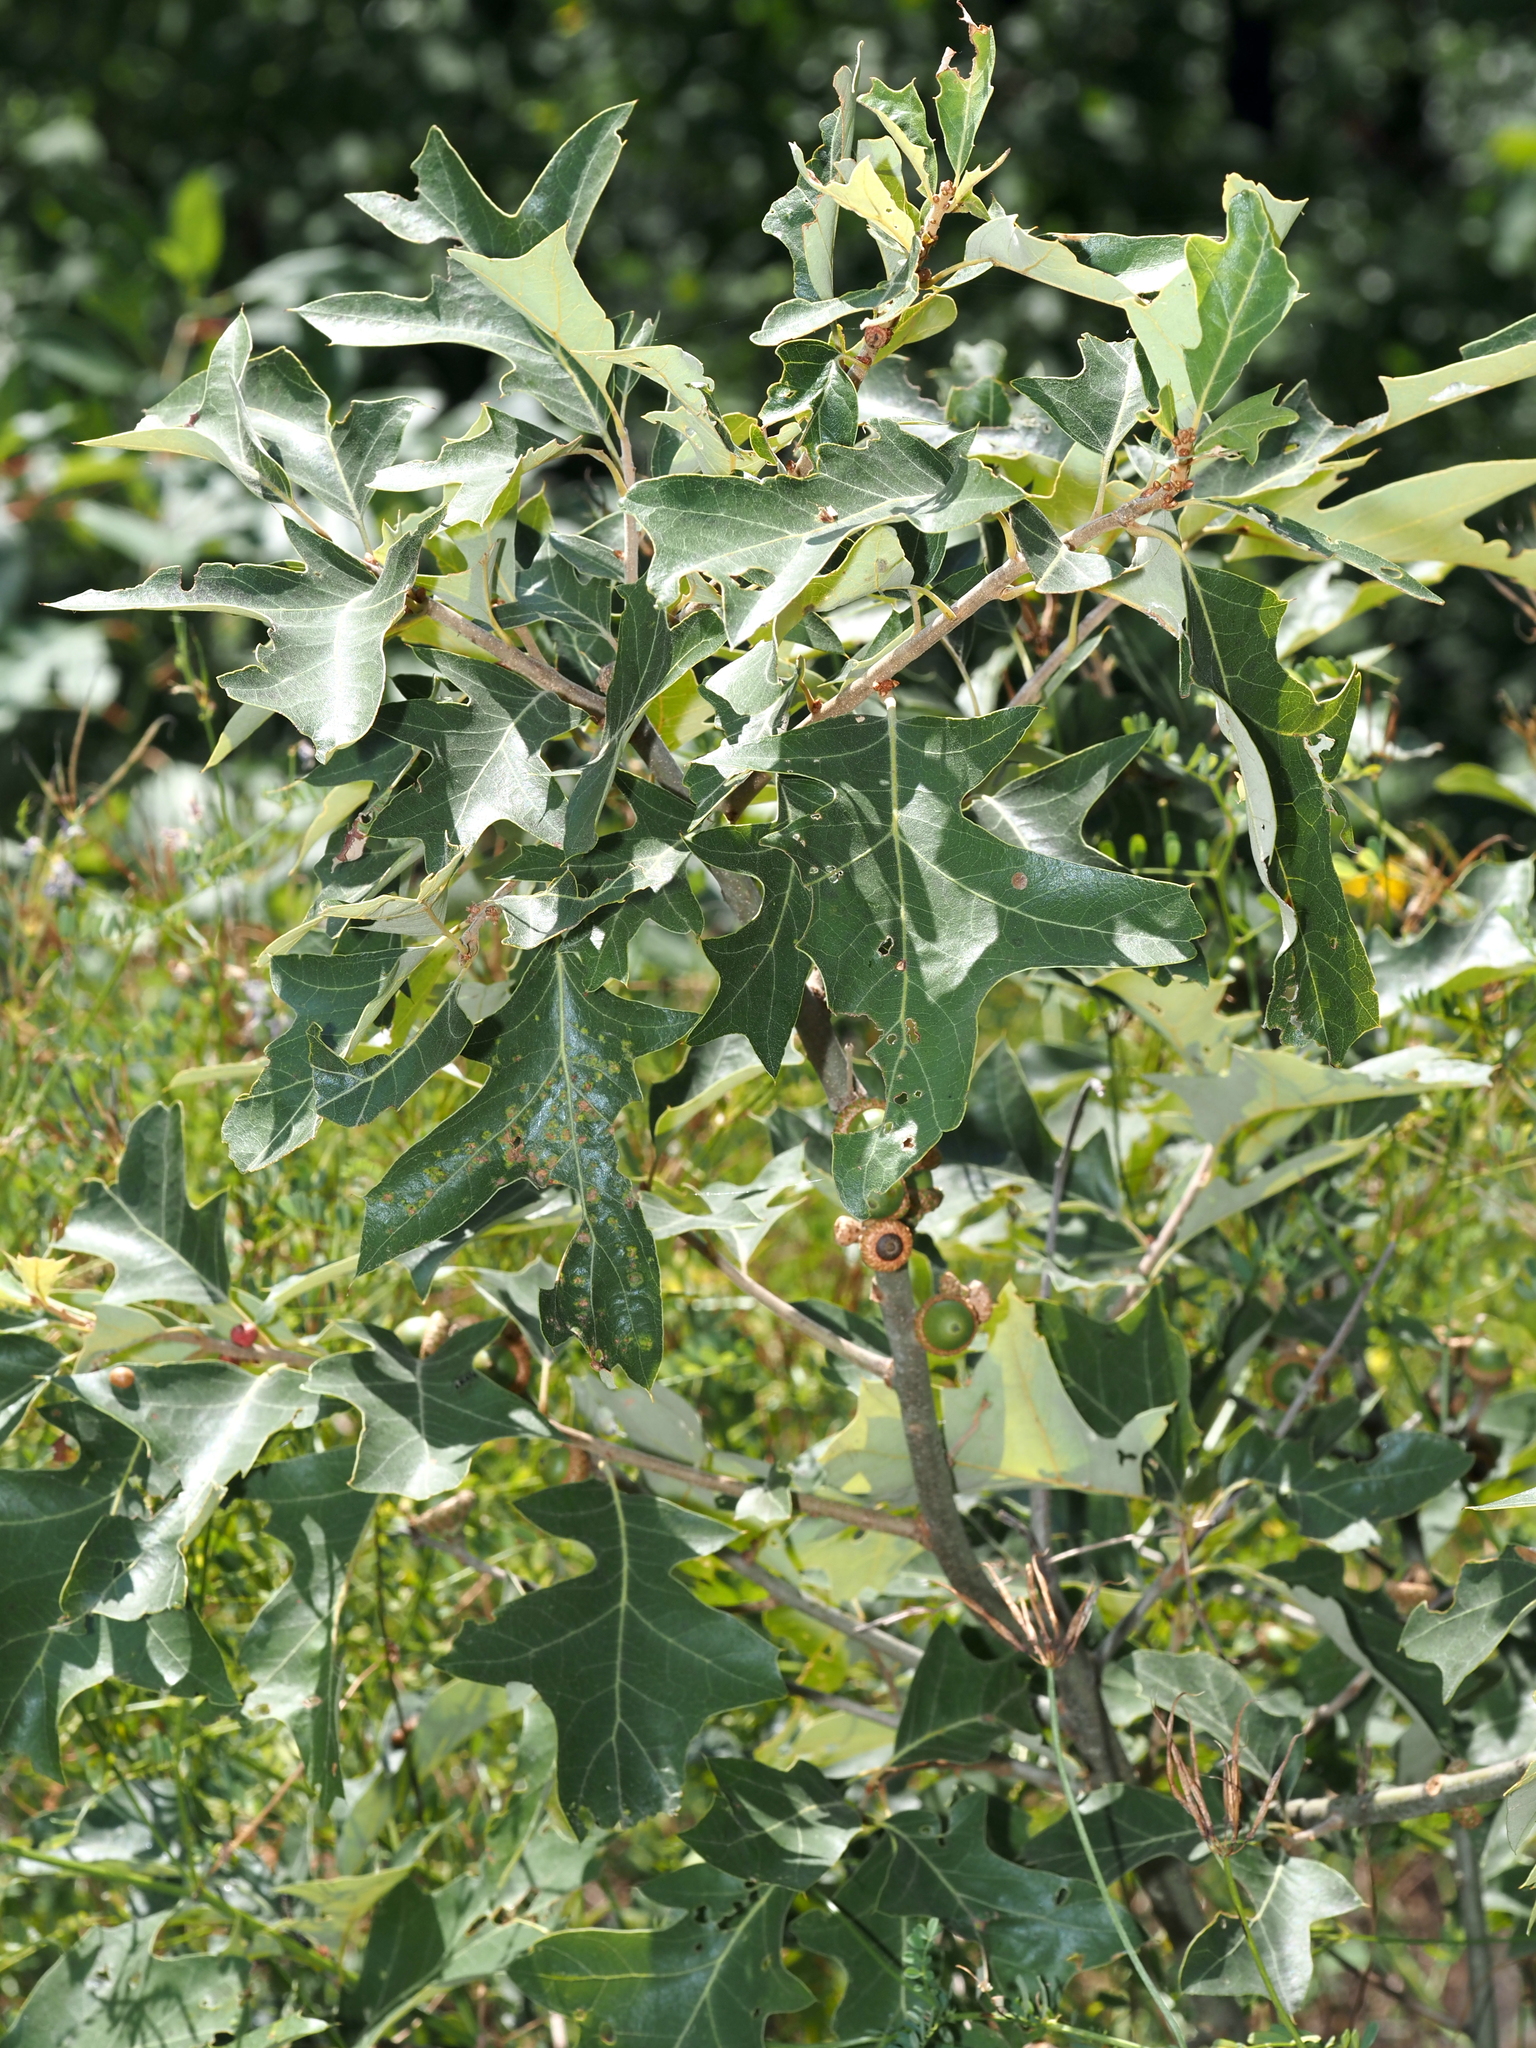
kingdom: Plantae
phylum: Tracheophyta
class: Magnoliopsida
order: Fagales
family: Fagaceae
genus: Quercus
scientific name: Quercus ilicifolia
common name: Bear oak
